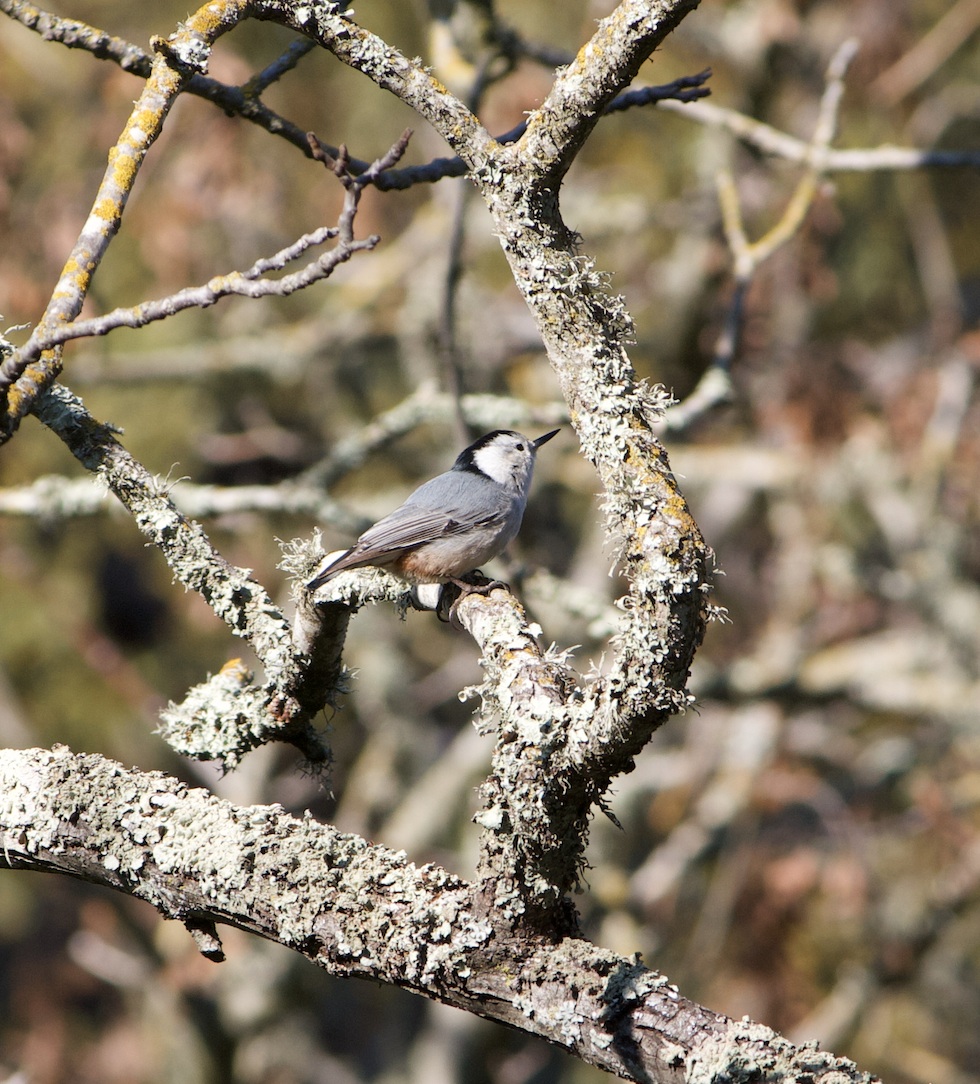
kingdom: Animalia
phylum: Chordata
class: Aves
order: Passeriformes
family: Sittidae
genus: Sitta
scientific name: Sitta carolinensis
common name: White-breasted nuthatch
